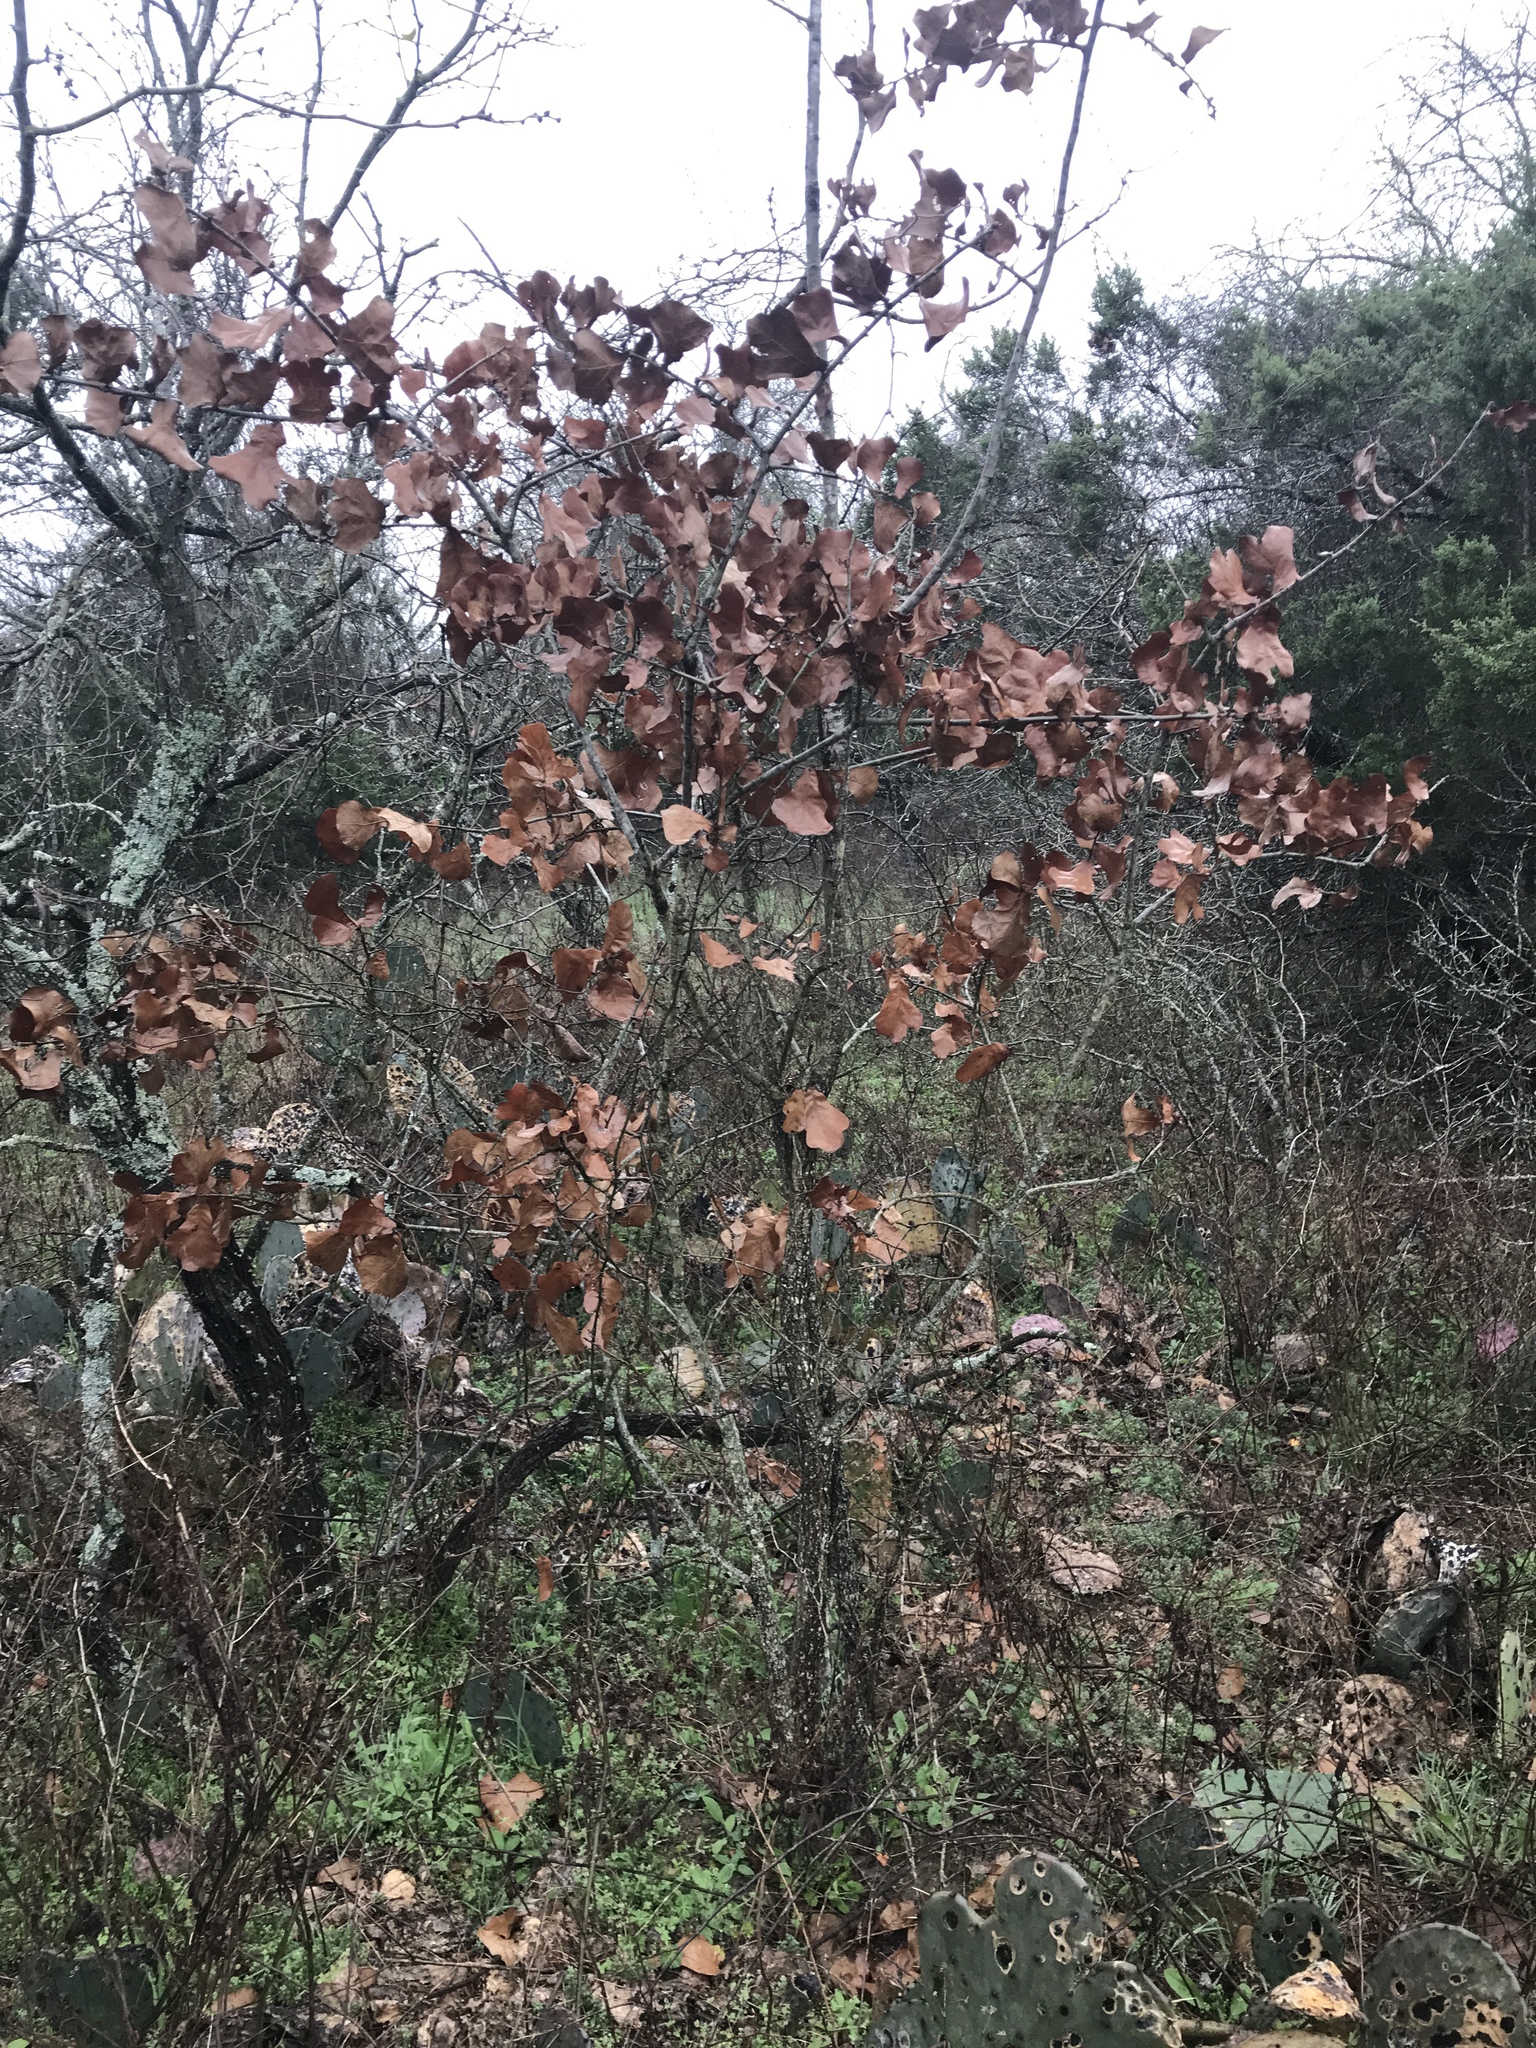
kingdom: Plantae
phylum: Tracheophyta
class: Magnoliopsida
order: Fagales
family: Fagaceae
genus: Quercus
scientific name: Quercus marilandica
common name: Blackjack oak
